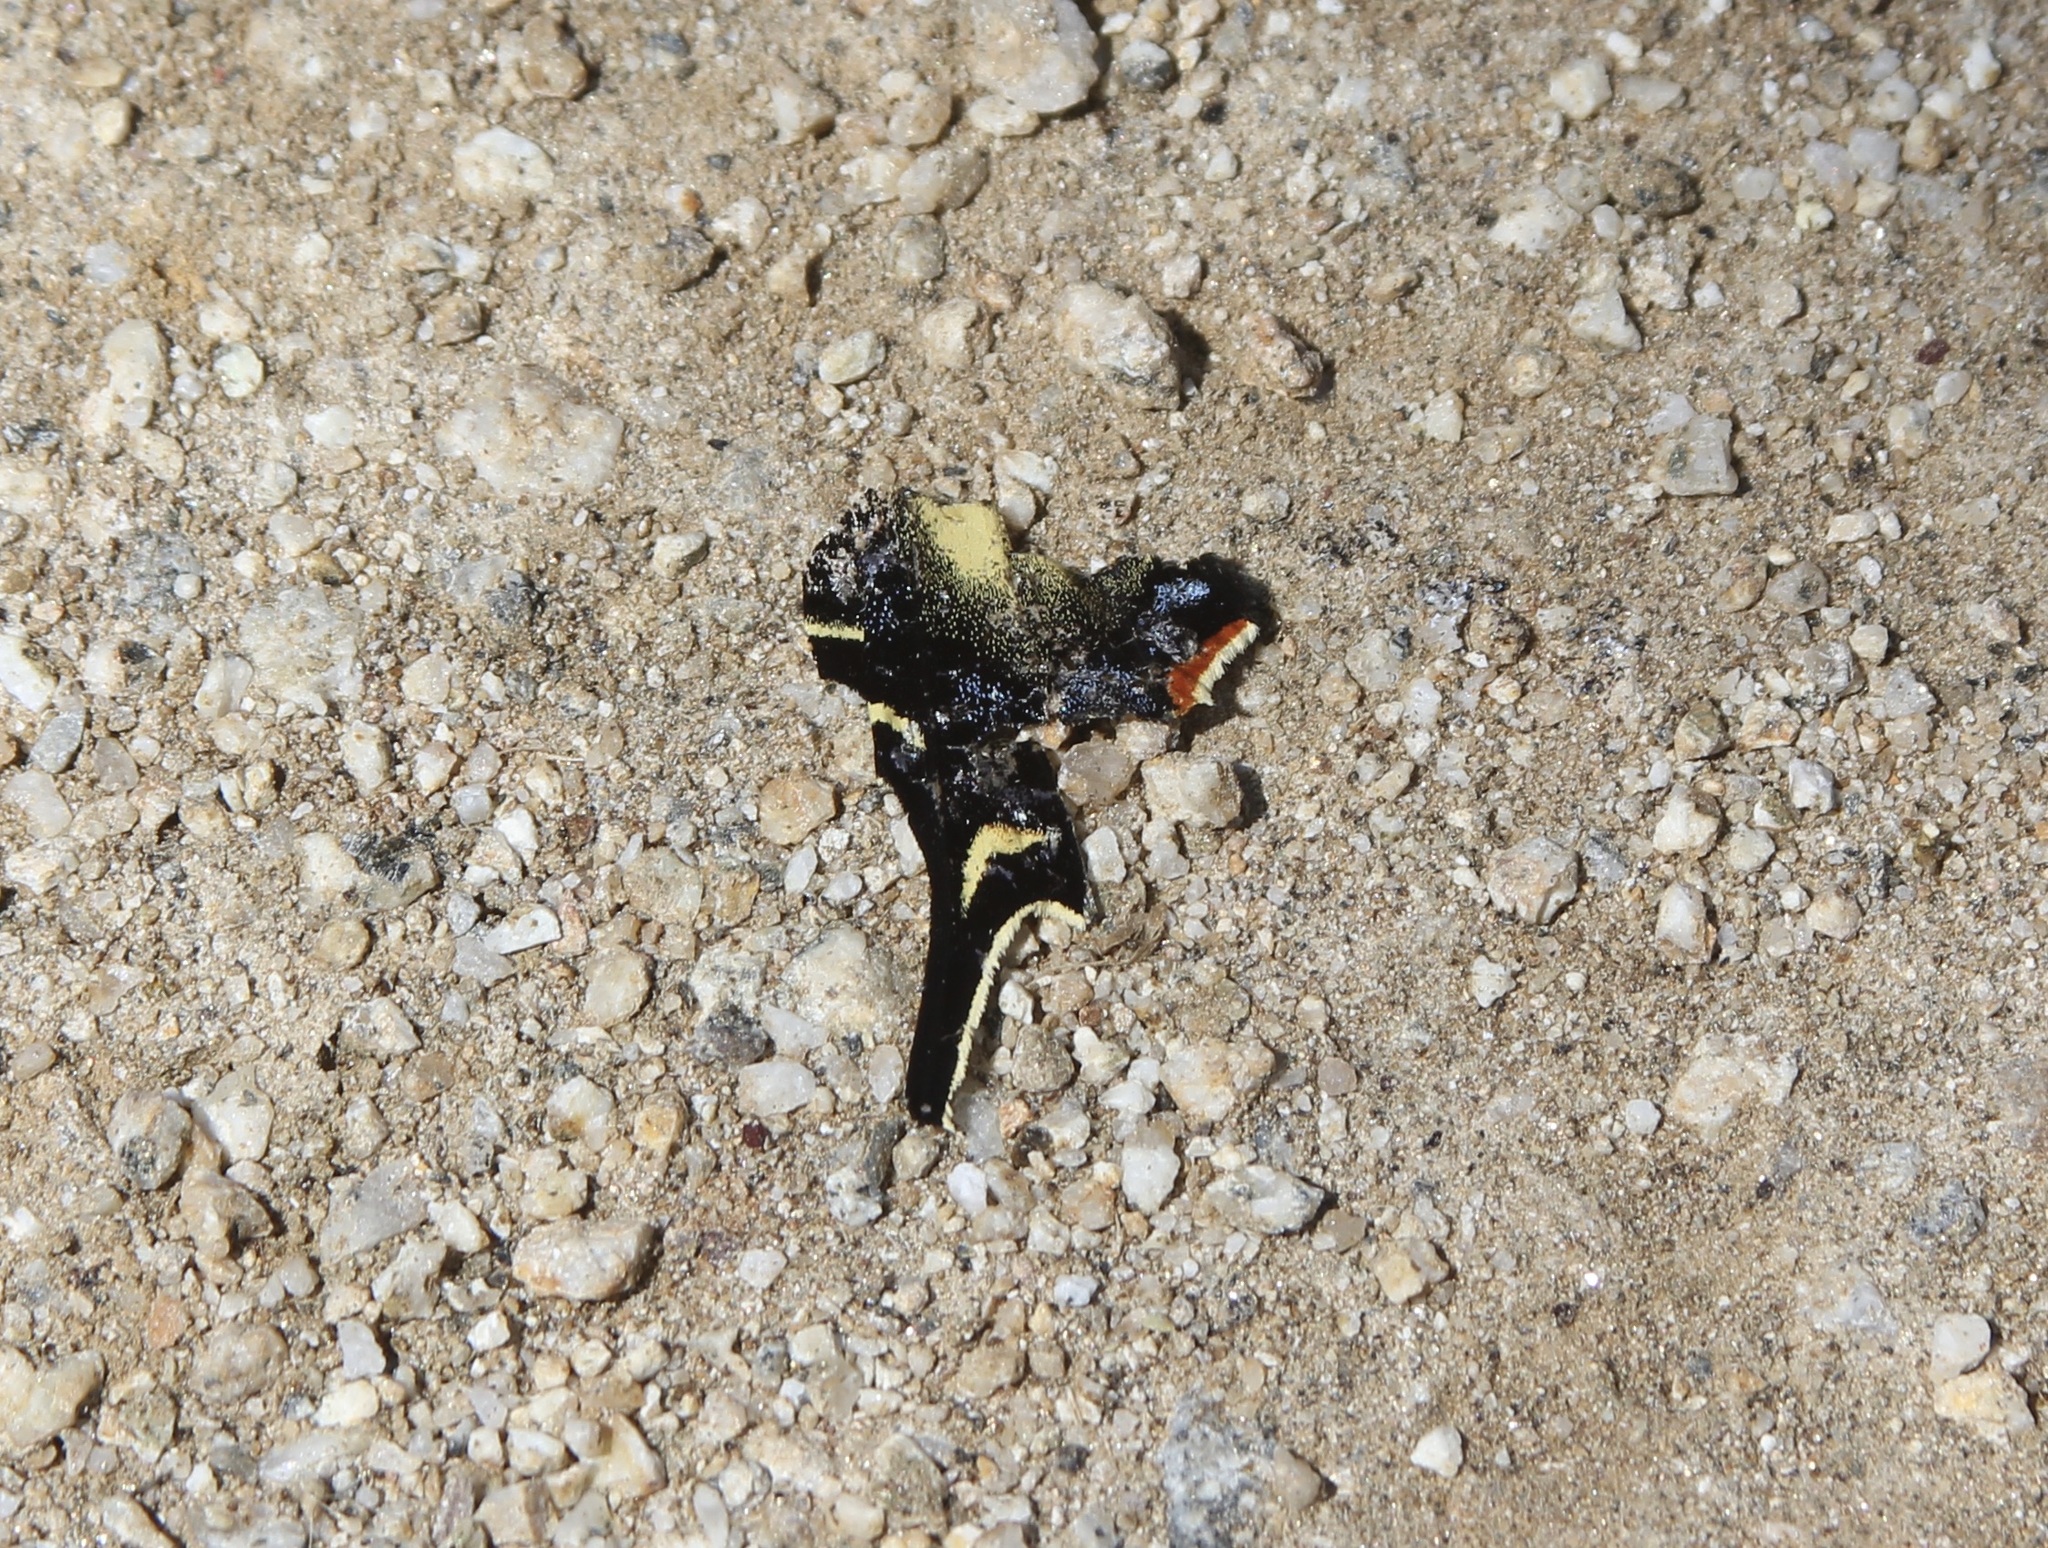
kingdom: Animalia
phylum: Arthropoda
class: Insecta
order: Lepidoptera
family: Papilionidae
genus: Papilio
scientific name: Papilio rutulus
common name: Western tiger swallowtail
